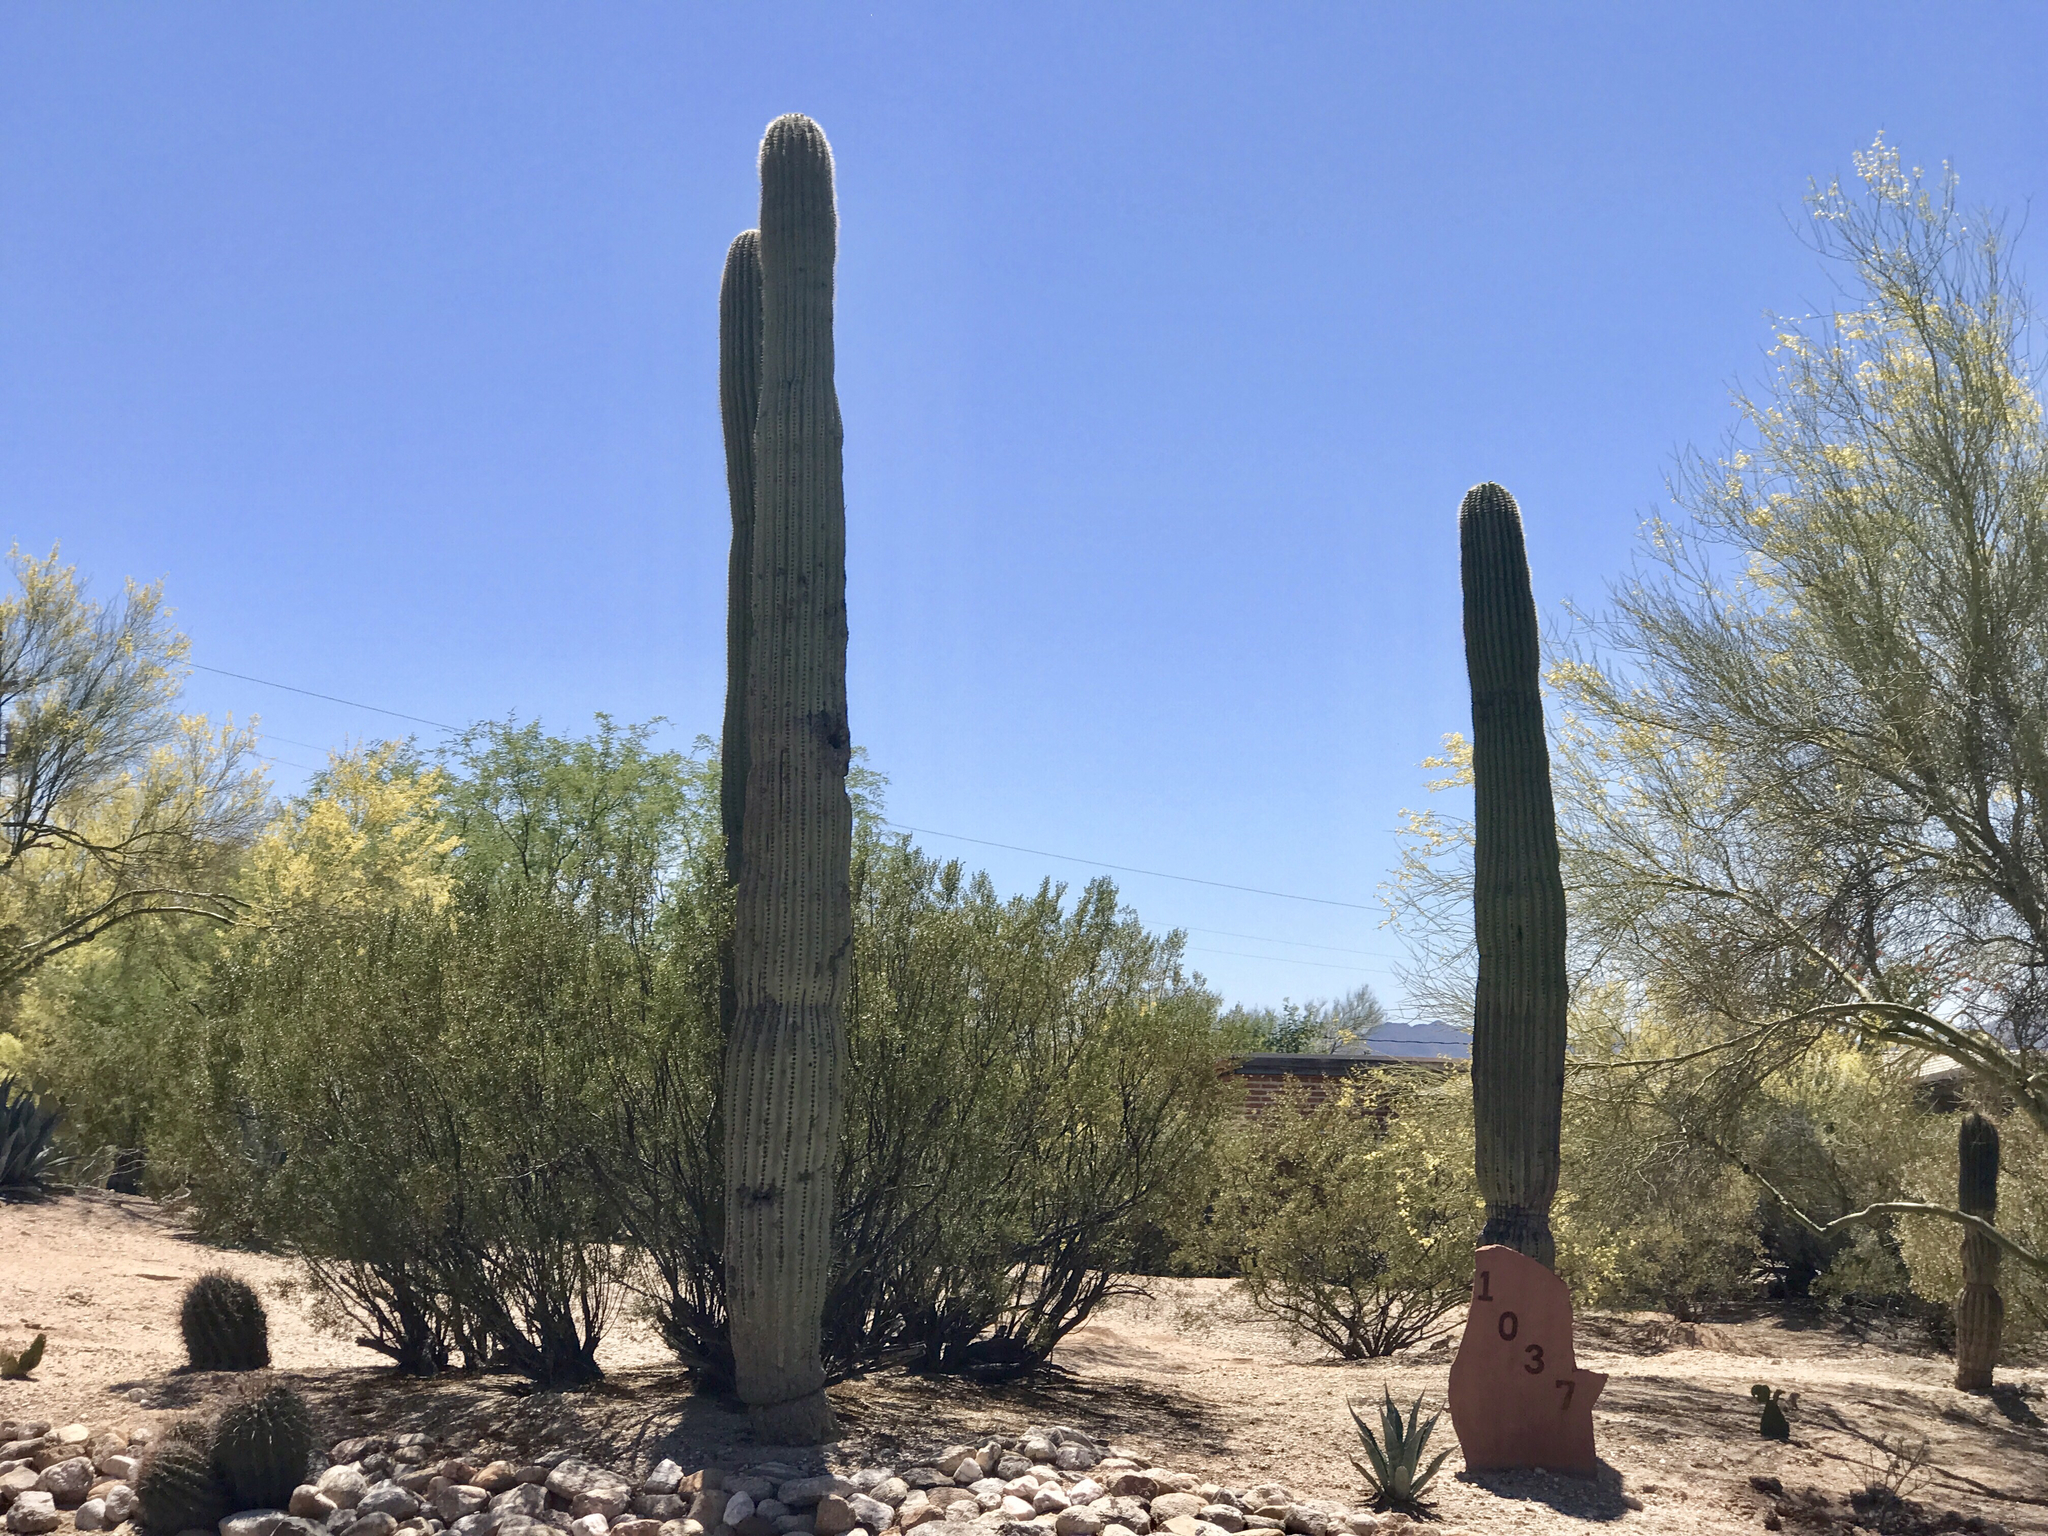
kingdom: Plantae
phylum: Tracheophyta
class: Magnoliopsida
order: Caryophyllales
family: Cactaceae
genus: Carnegiea
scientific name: Carnegiea gigantea
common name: Saguaro
